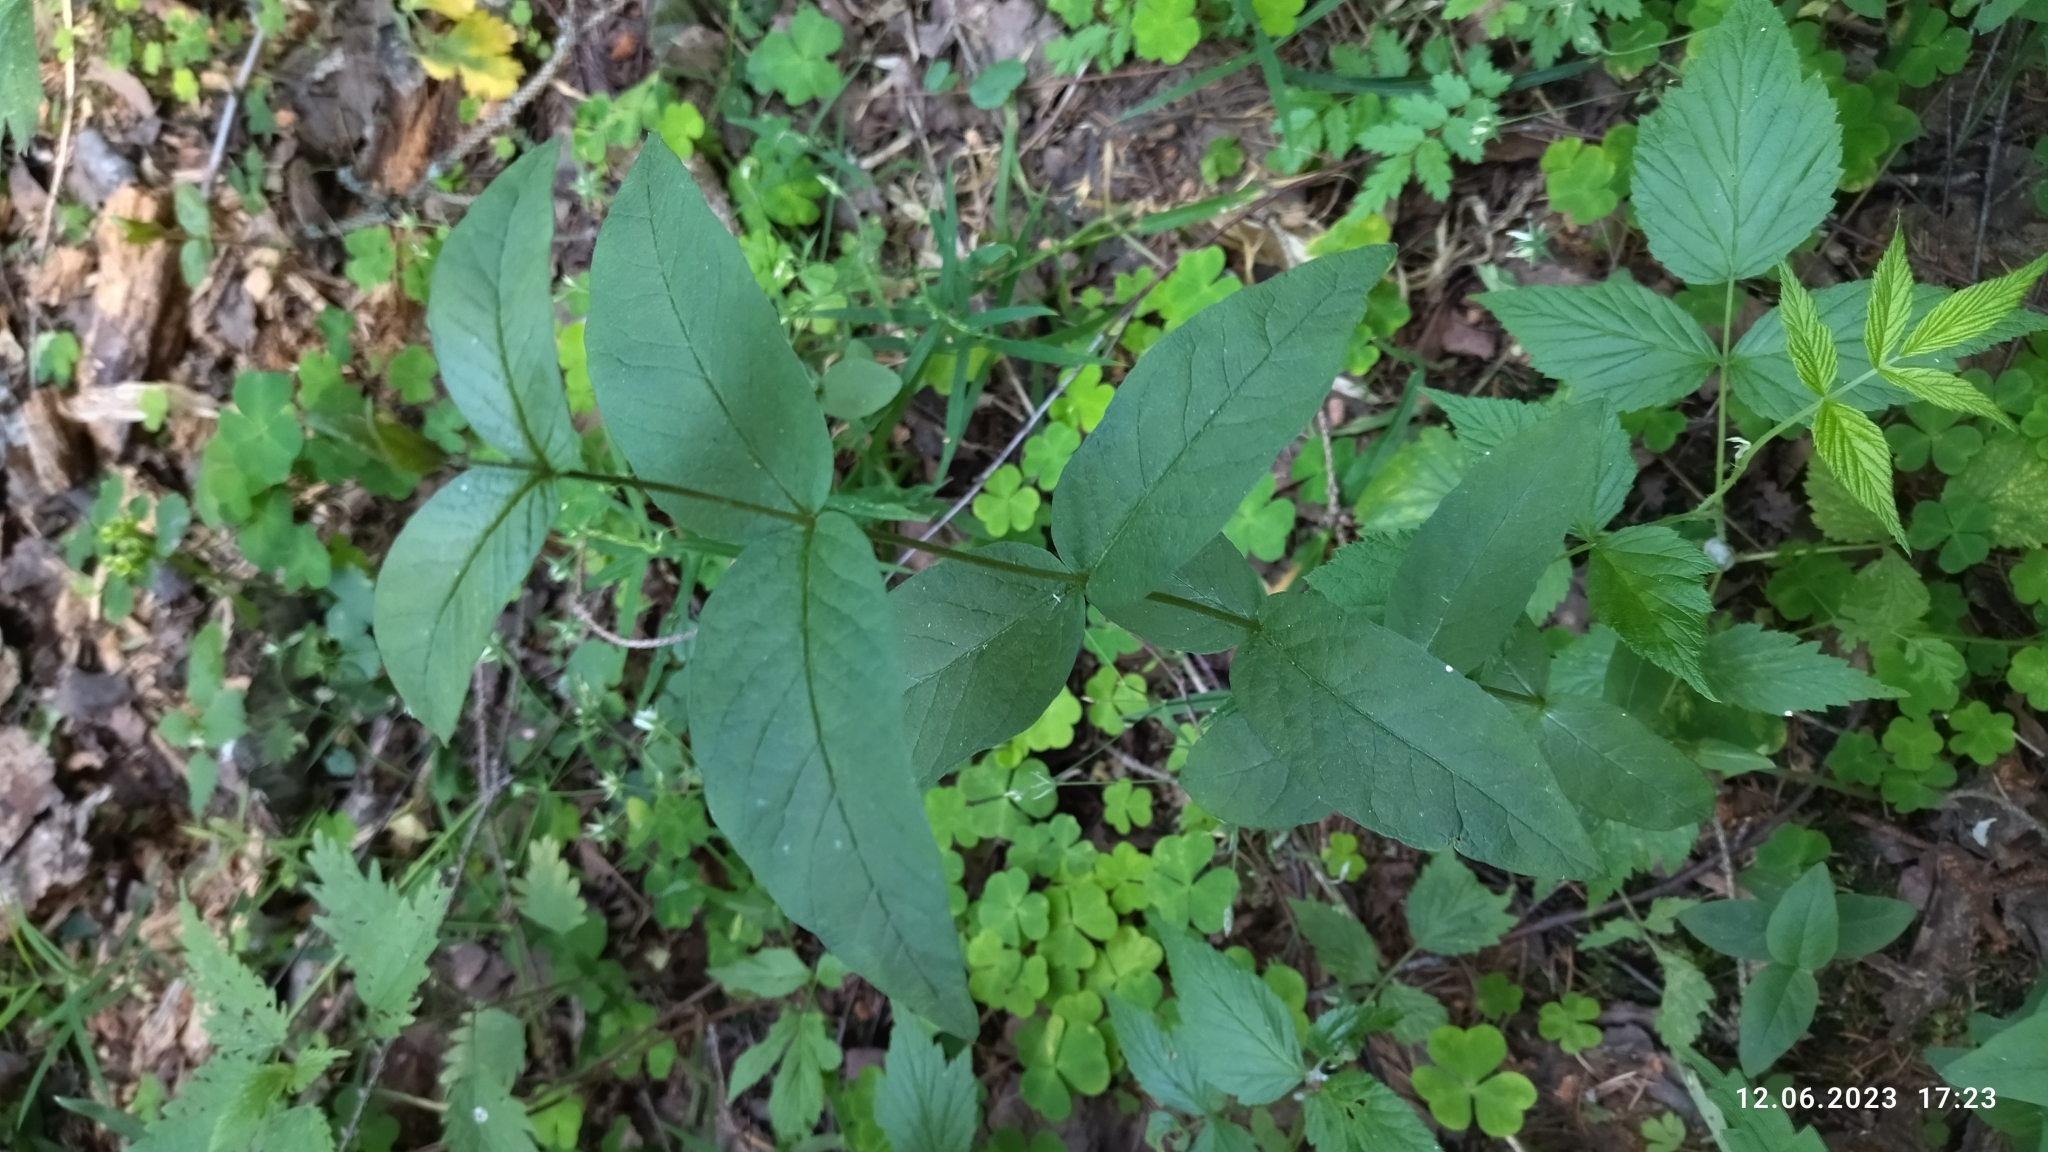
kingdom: Plantae
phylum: Tracheophyta
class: Magnoliopsida
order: Ericales
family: Primulaceae
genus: Lysimachia
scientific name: Lysimachia vulgaris
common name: Yellow loosestrife
